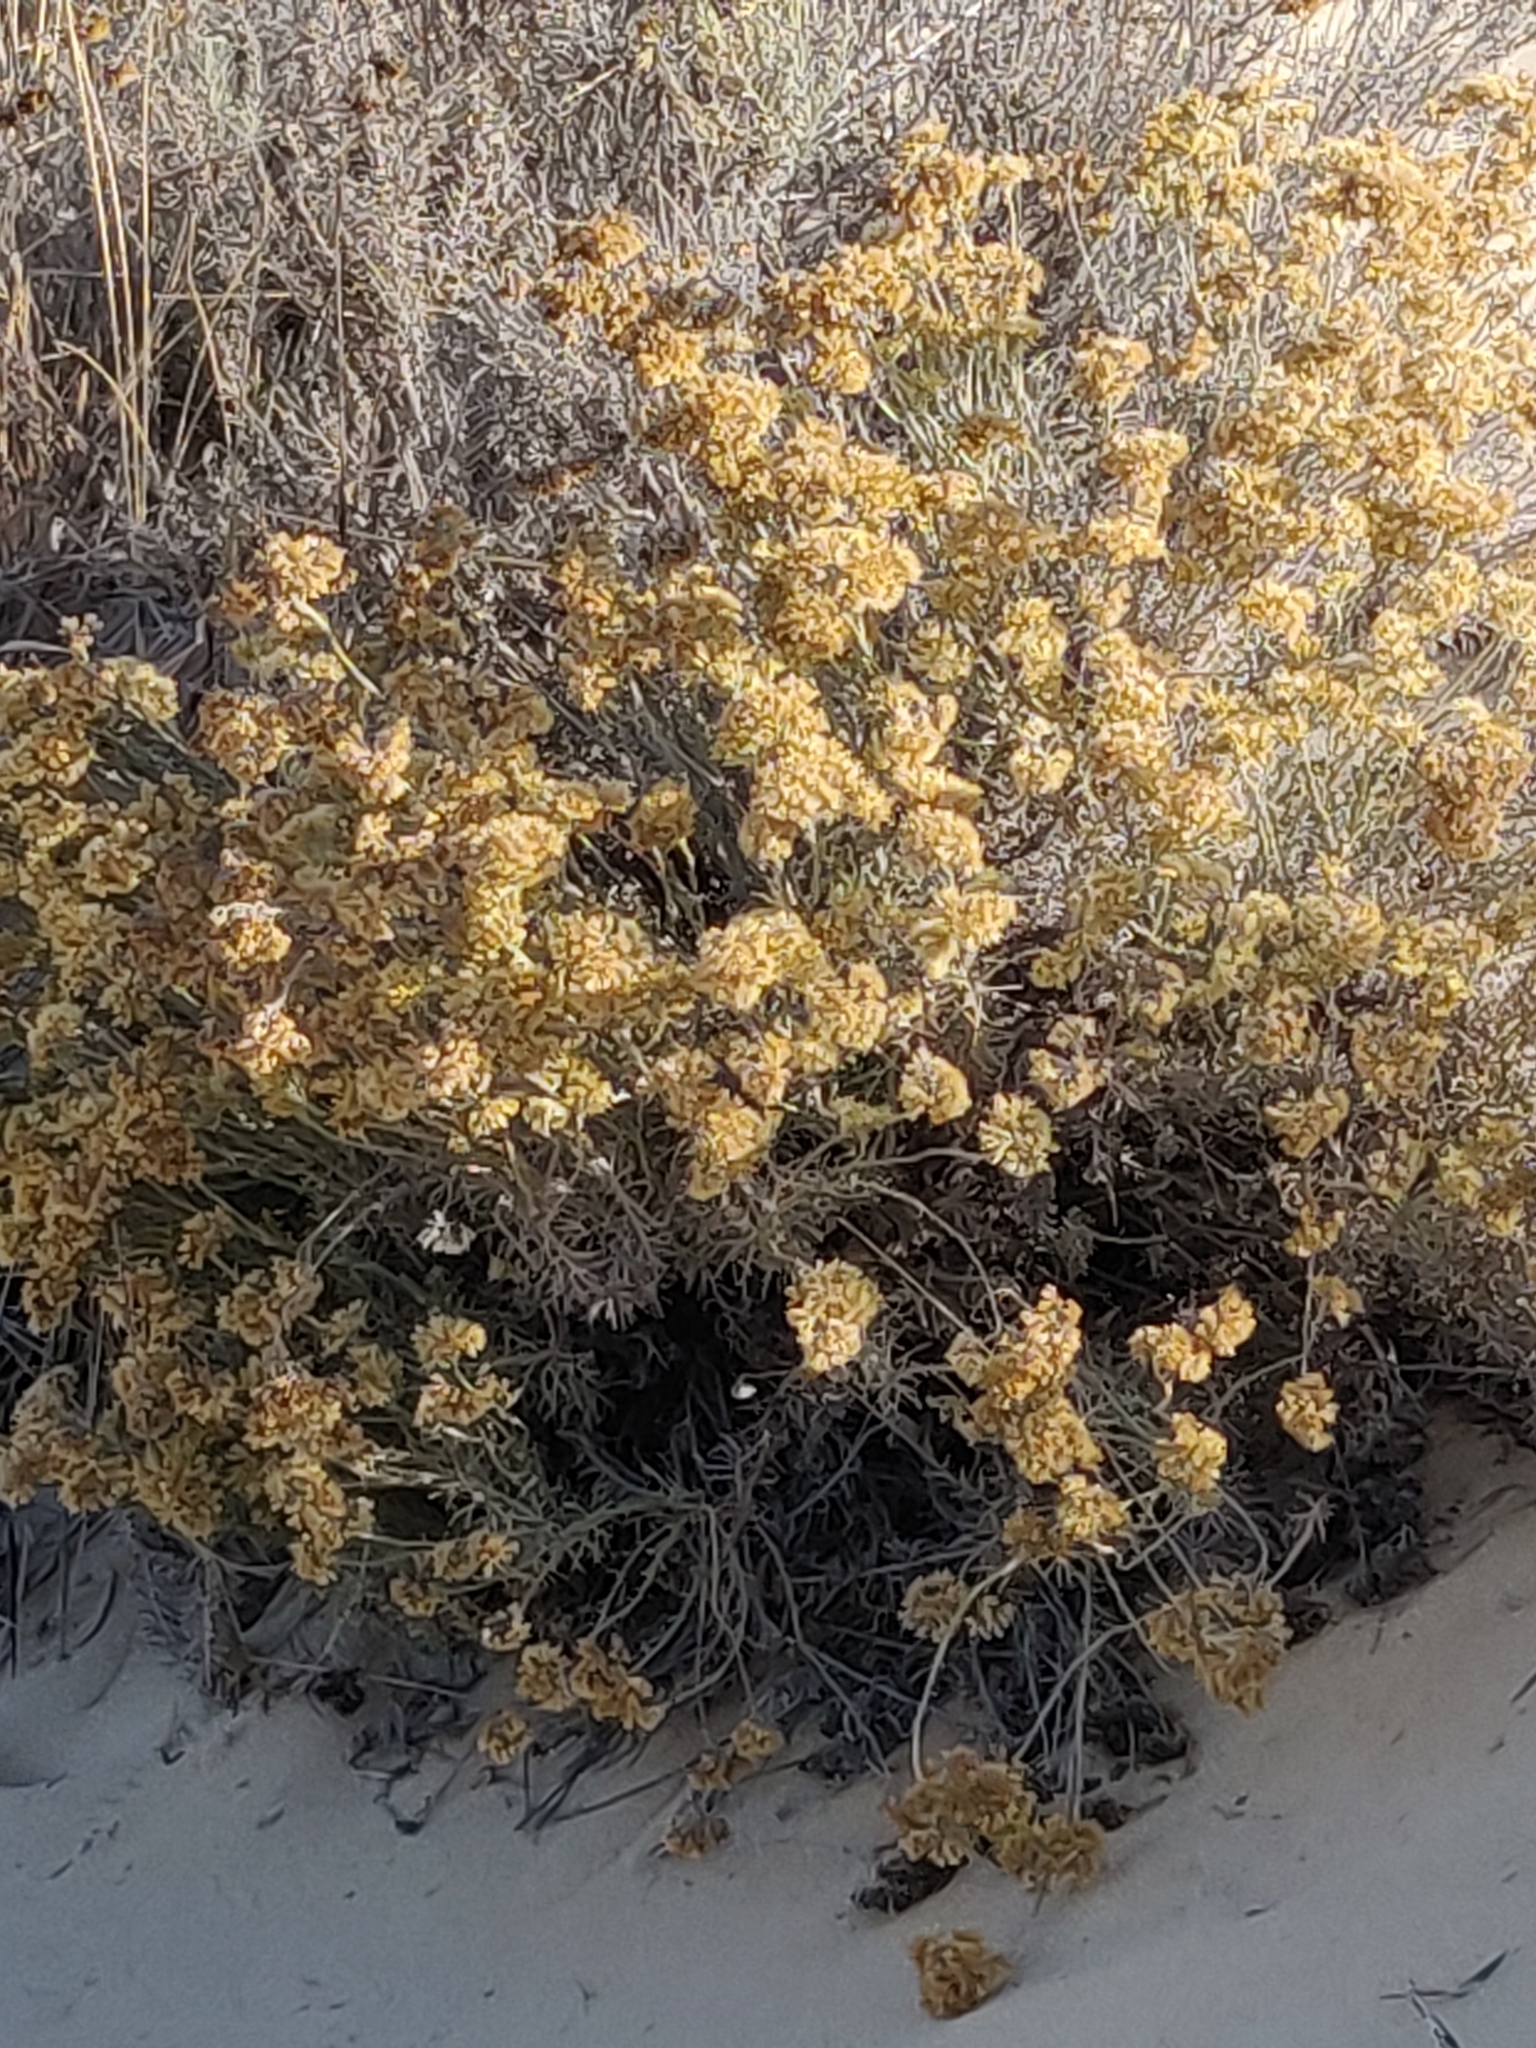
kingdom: Plantae
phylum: Tracheophyta
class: Magnoliopsida
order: Asterales
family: Asteraceae
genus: Helichrysum
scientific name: Helichrysum serotinum
